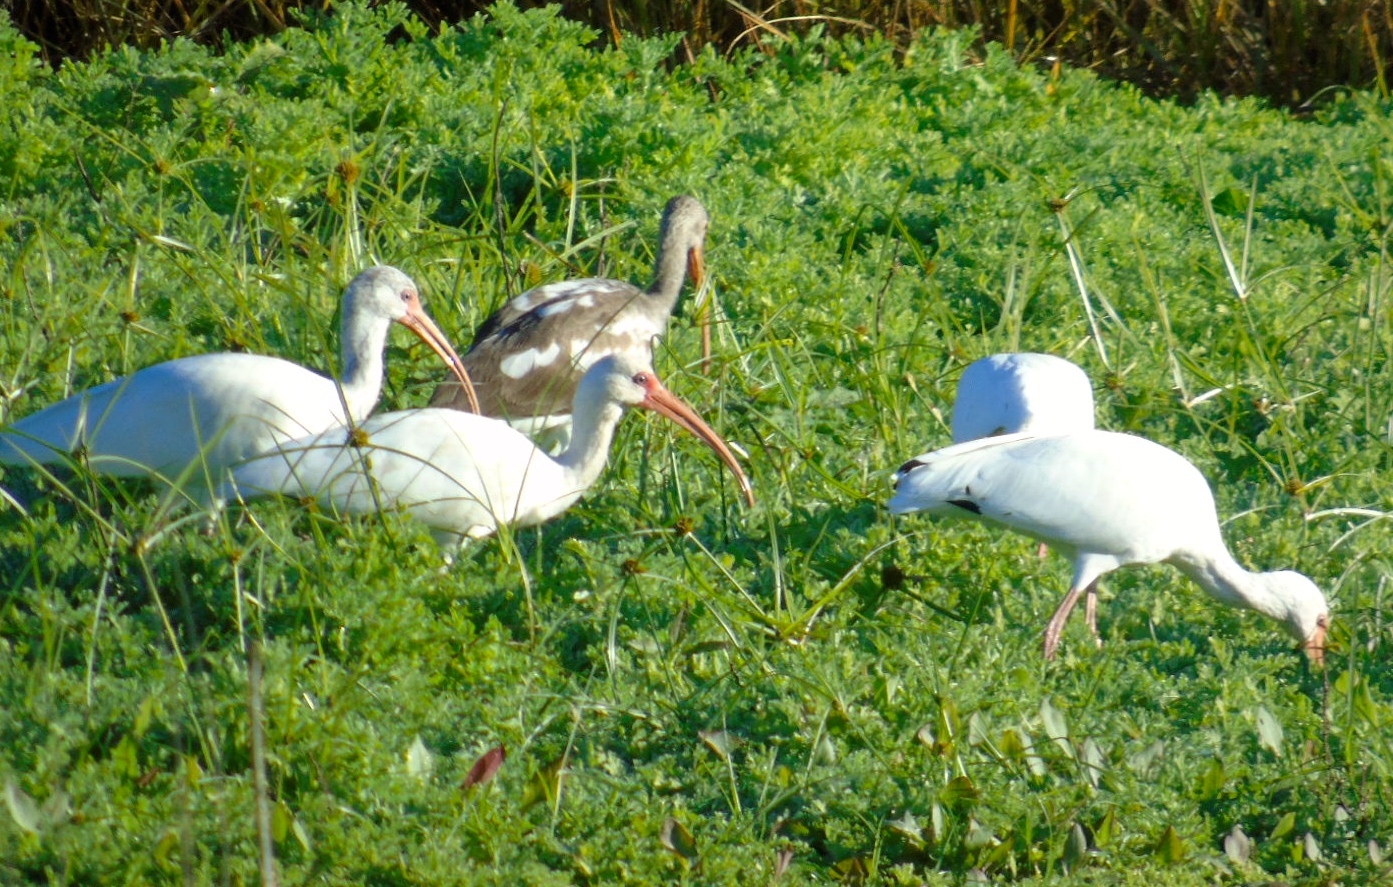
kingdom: Animalia
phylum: Chordata
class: Aves
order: Pelecaniformes
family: Threskiornithidae
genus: Eudocimus
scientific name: Eudocimus albus
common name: White ibis
